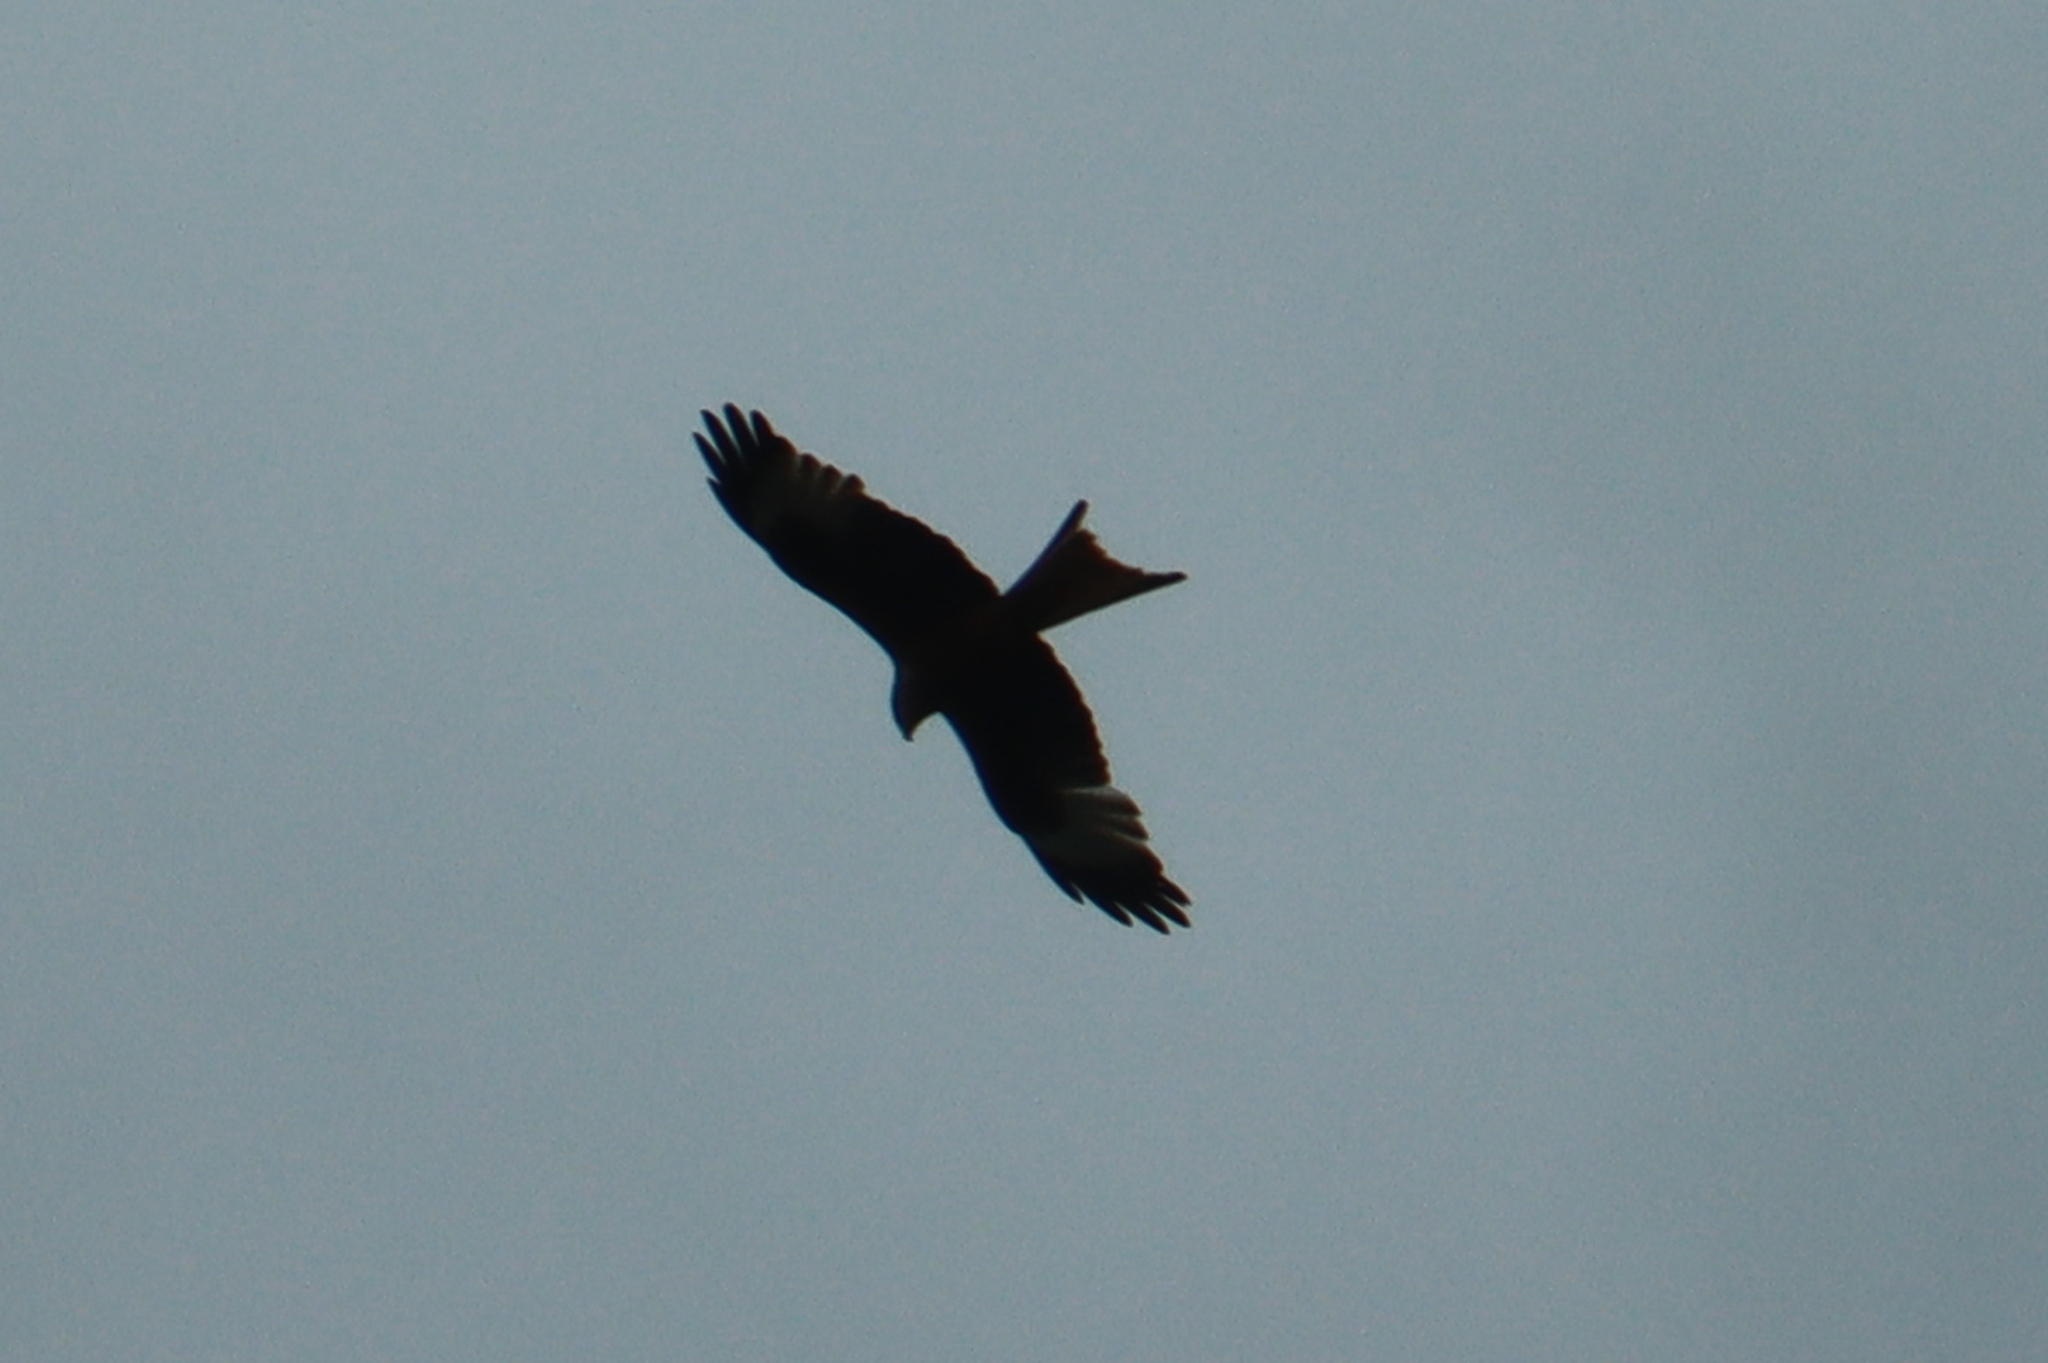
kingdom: Animalia
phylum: Chordata
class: Aves
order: Accipitriformes
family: Accipitridae
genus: Milvus
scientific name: Milvus milvus
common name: Red kite
